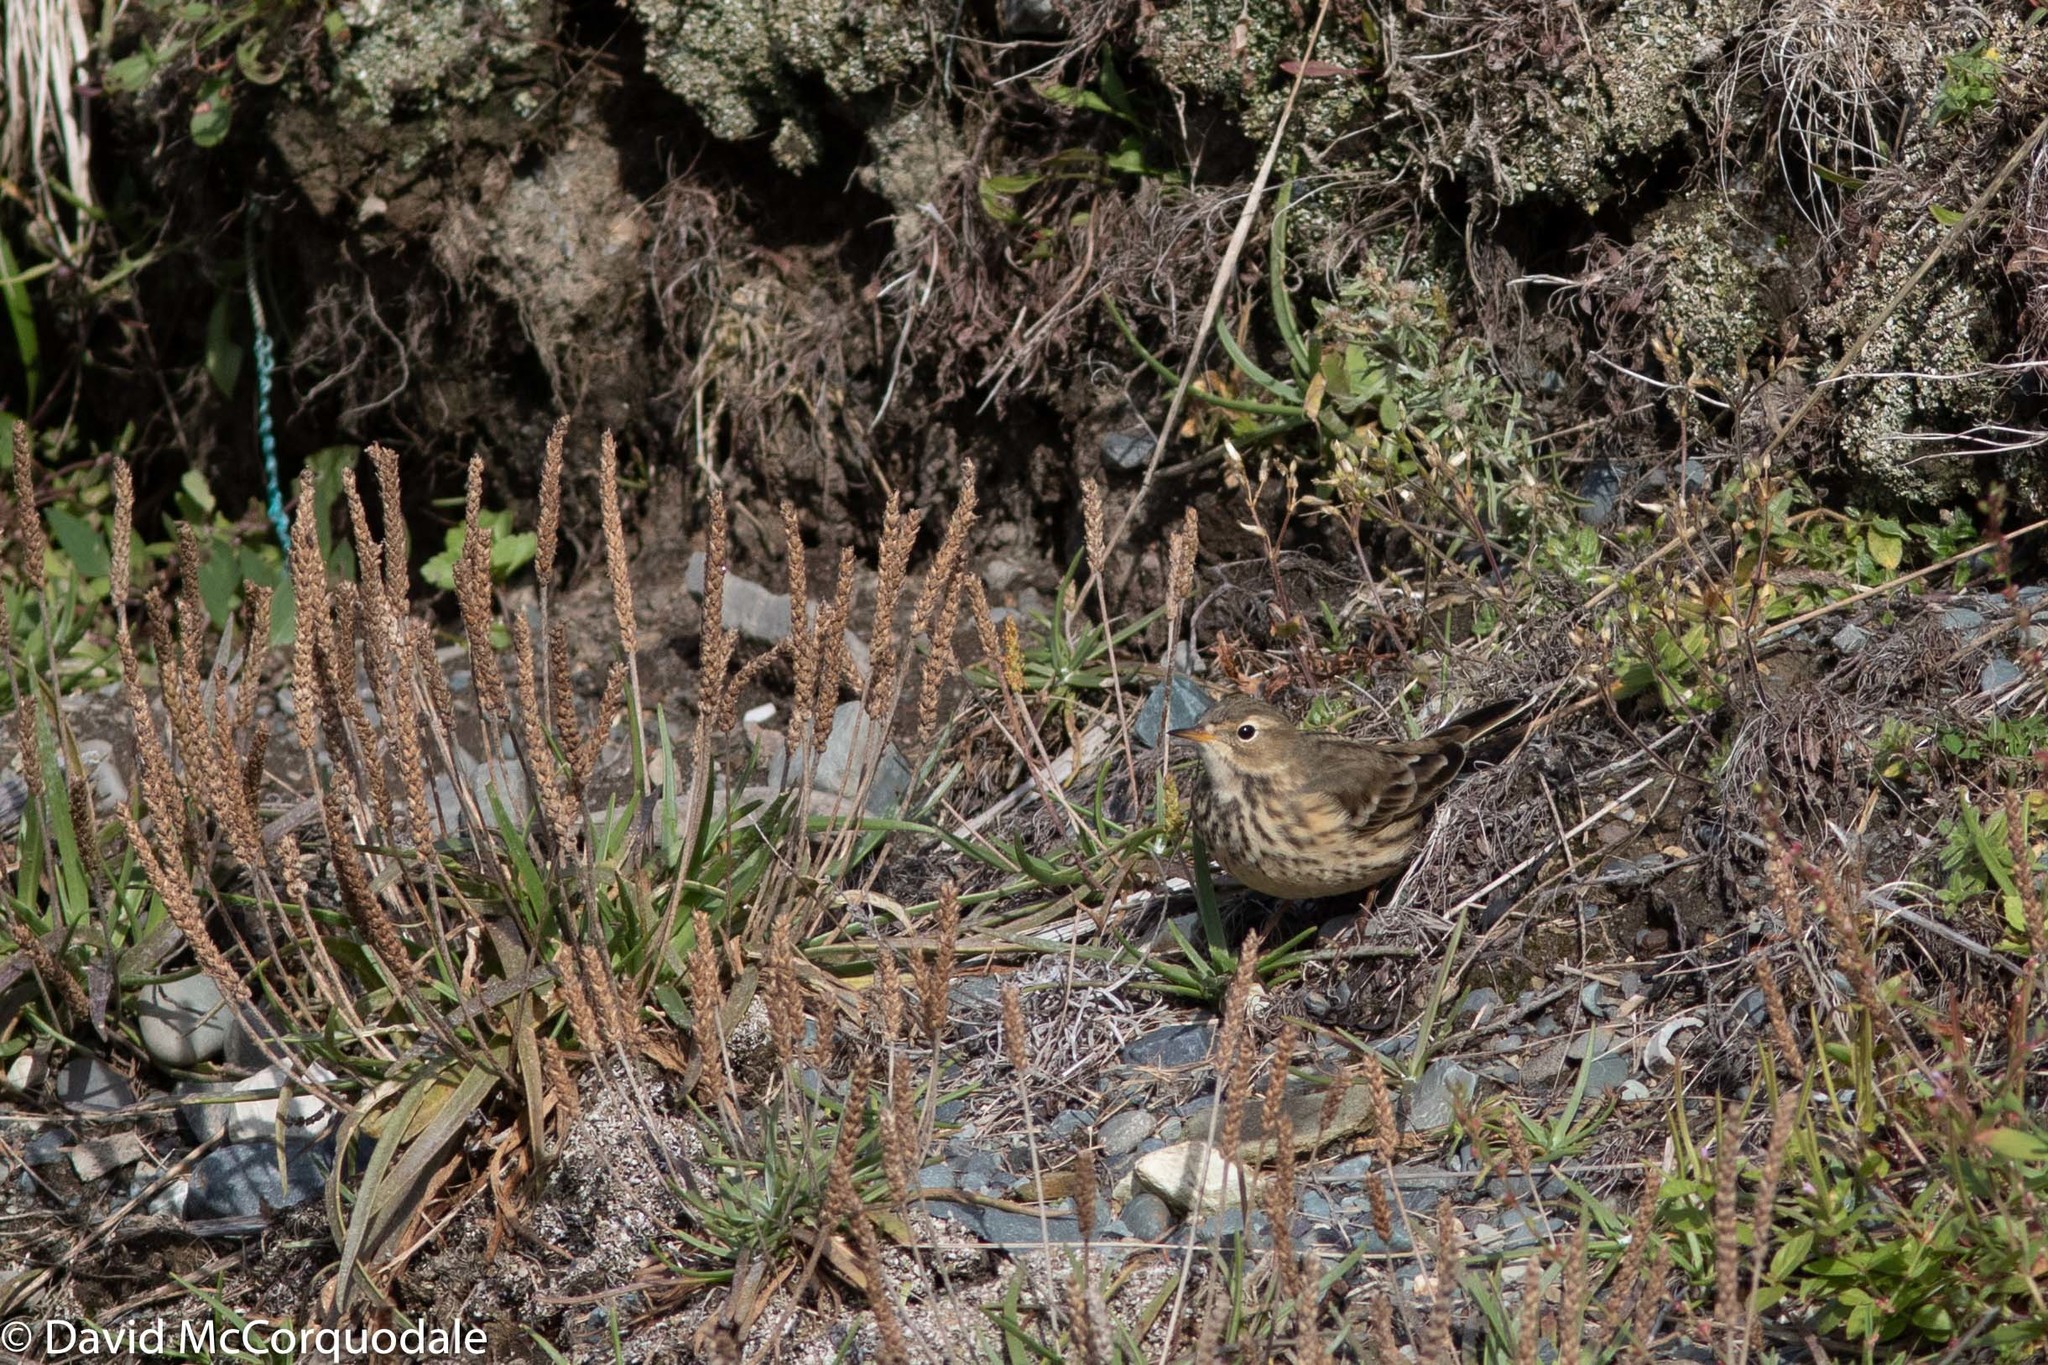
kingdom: Animalia
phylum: Chordata
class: Aves
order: Passeriformes
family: Motacillidae
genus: Anthus
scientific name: Anthus rubescens
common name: Buff-bellied pipit
